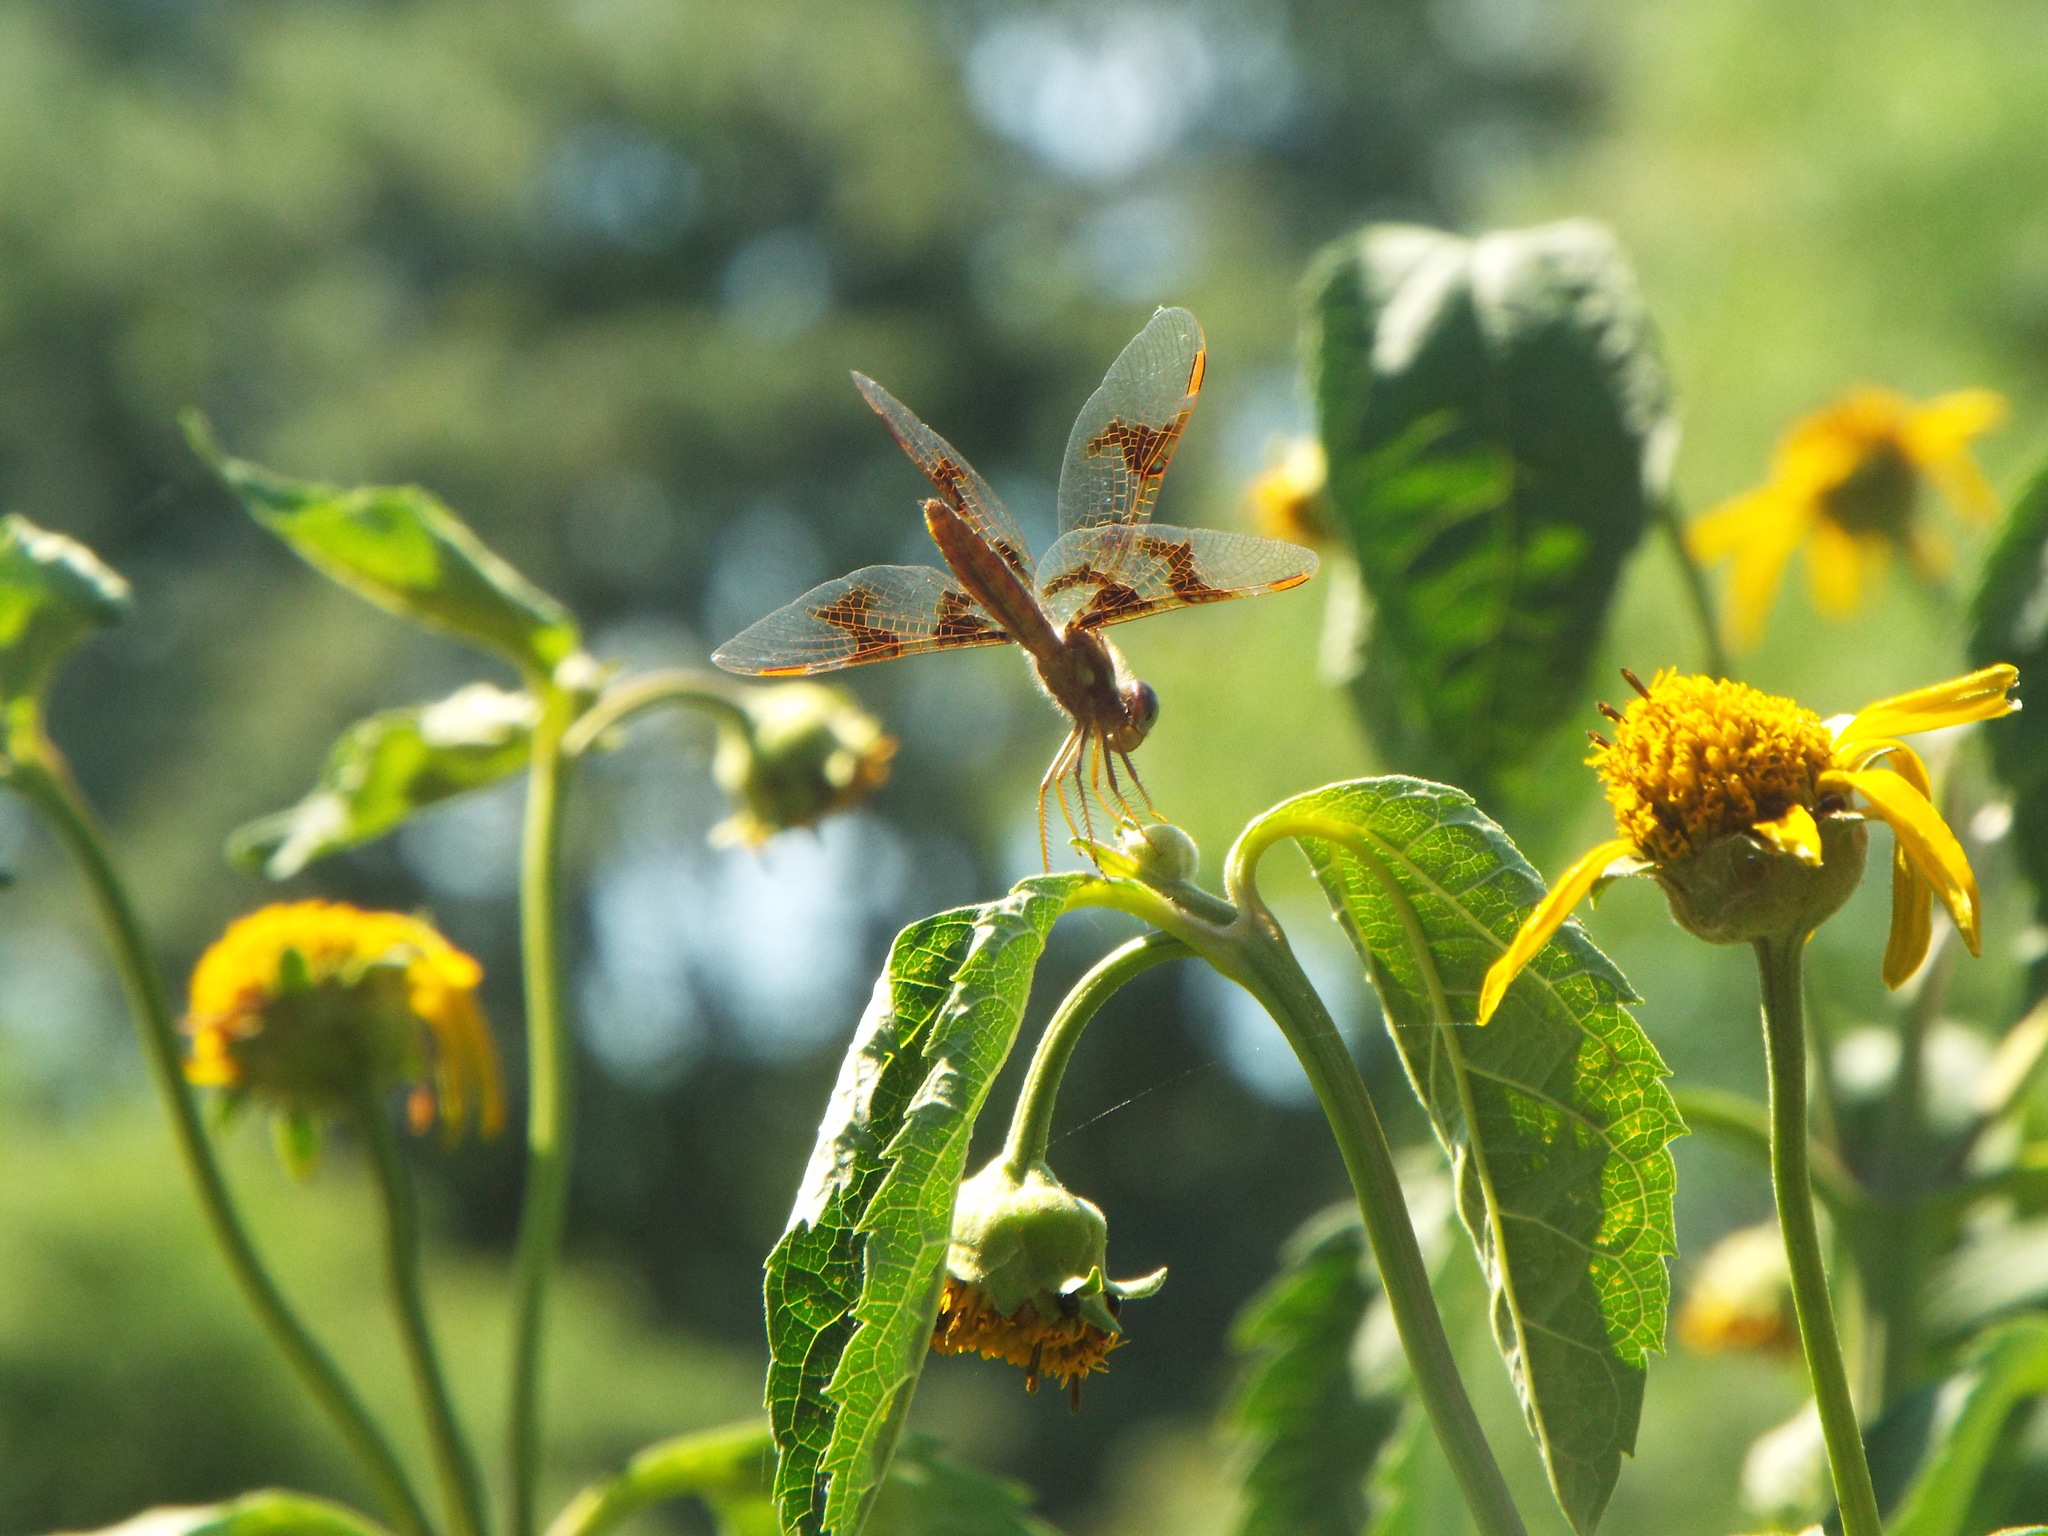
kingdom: Animalia
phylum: Arthropoda
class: Insecta
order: Odonata
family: Libellulidae
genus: Perithemis
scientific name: Perithemis tenera
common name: Eastern amberwing
